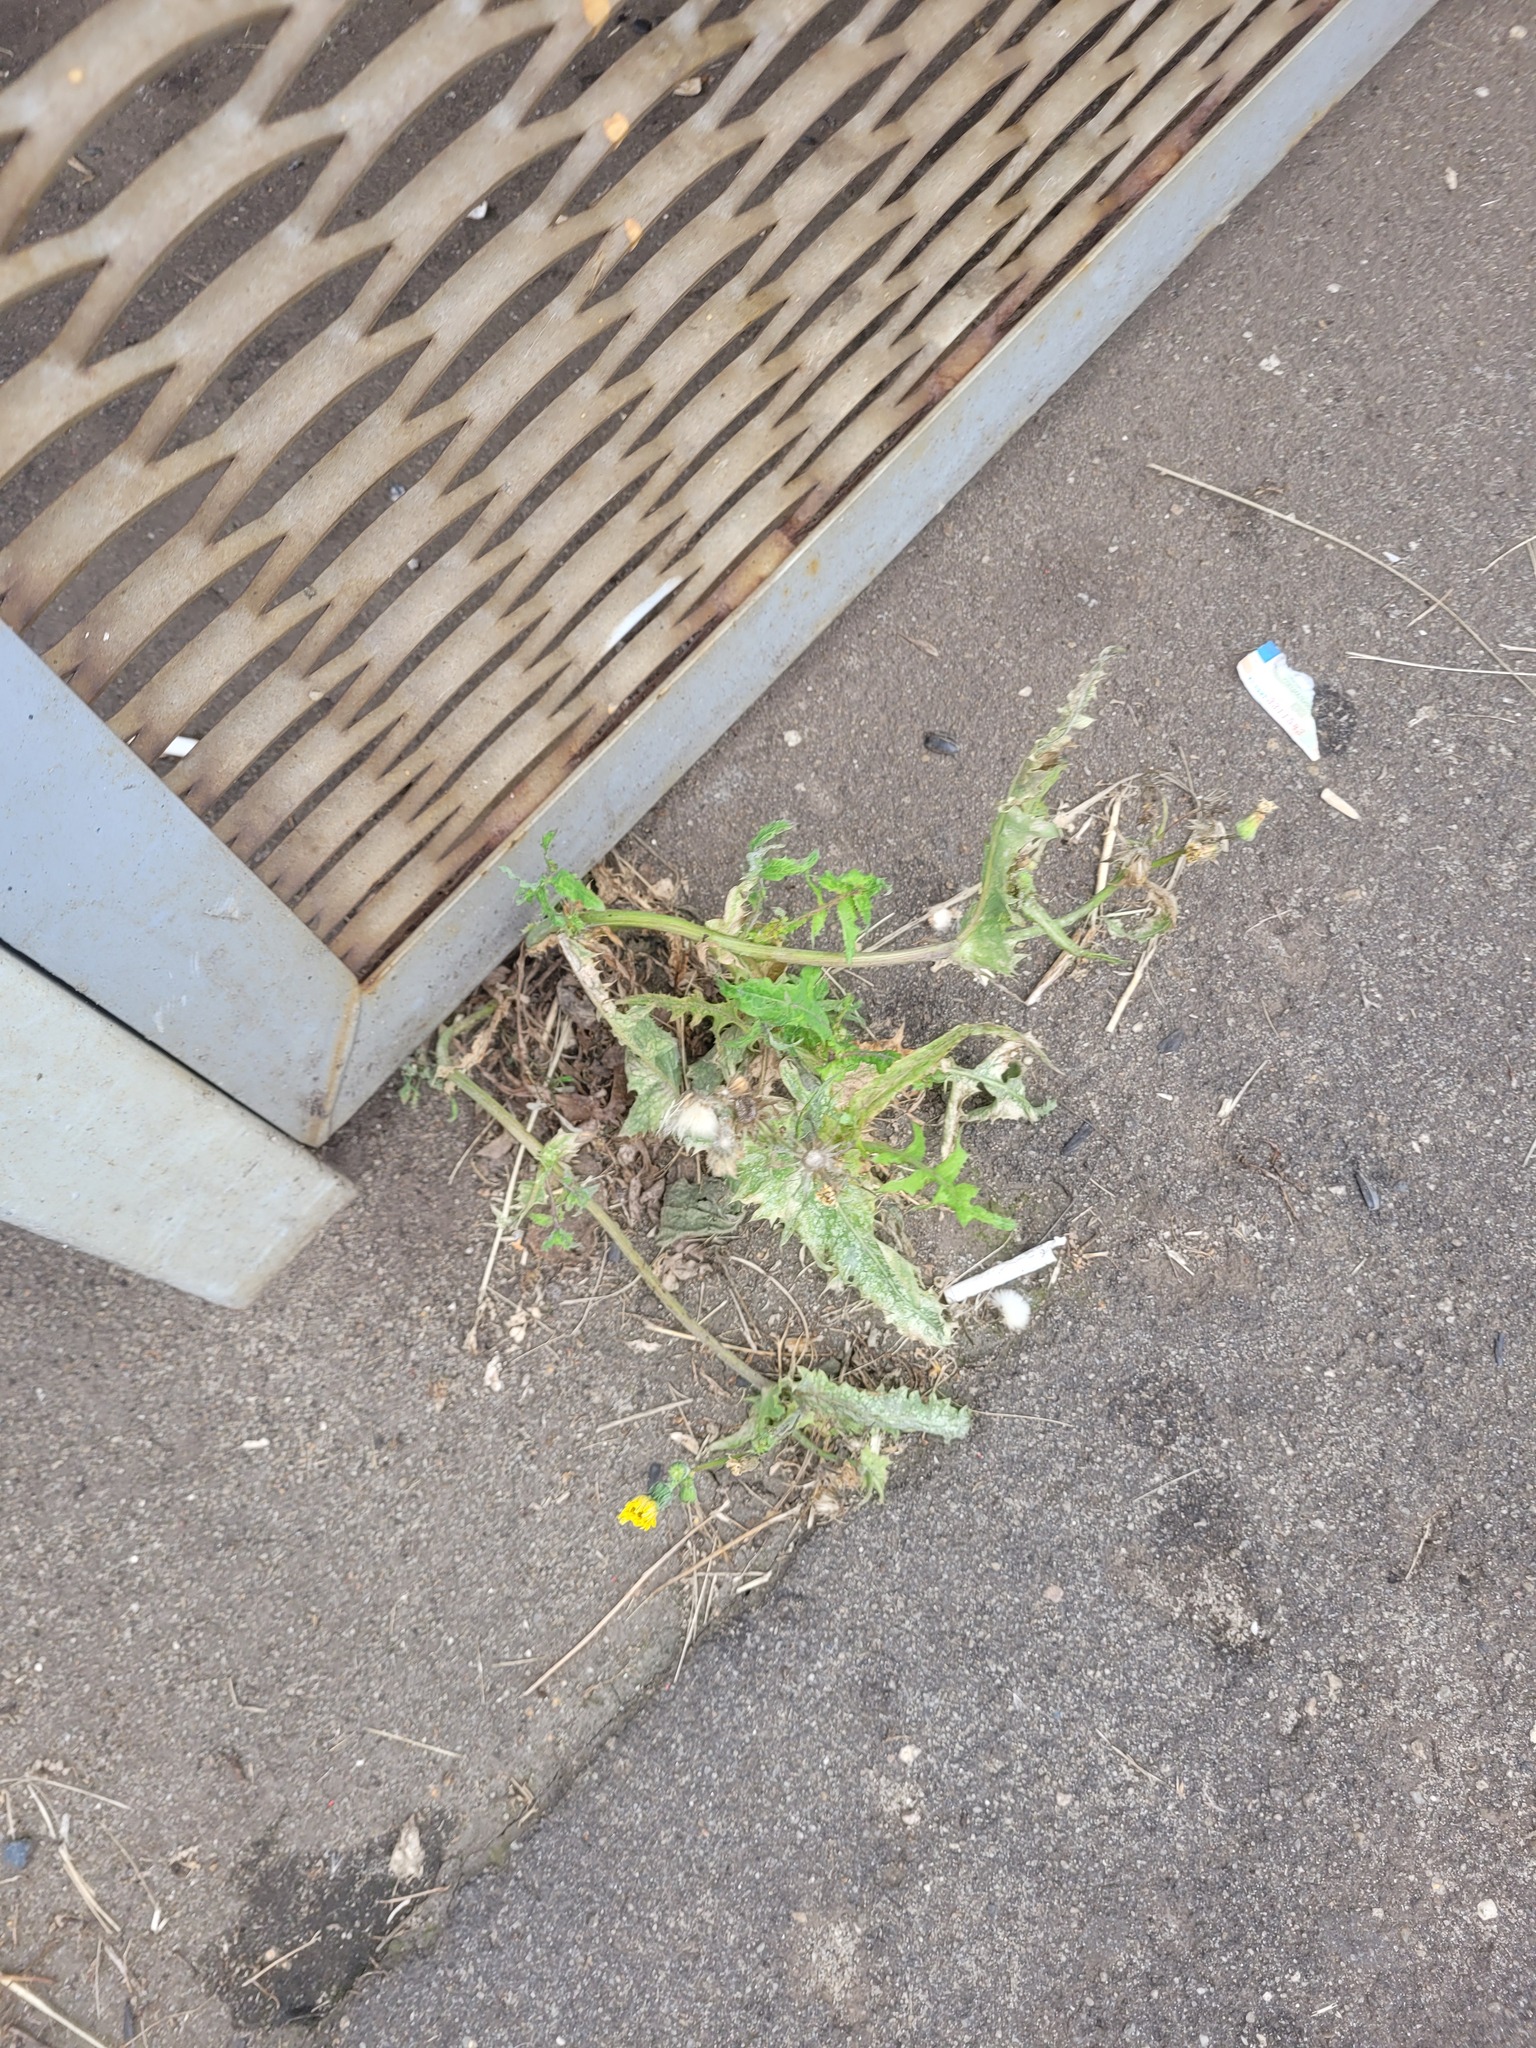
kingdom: Plantae
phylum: Tracheophyta
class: Magnoliopsida
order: Asterales
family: Asteraceae
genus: Sonchus
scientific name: Sonchus oleraceus
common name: Common sowthistle
